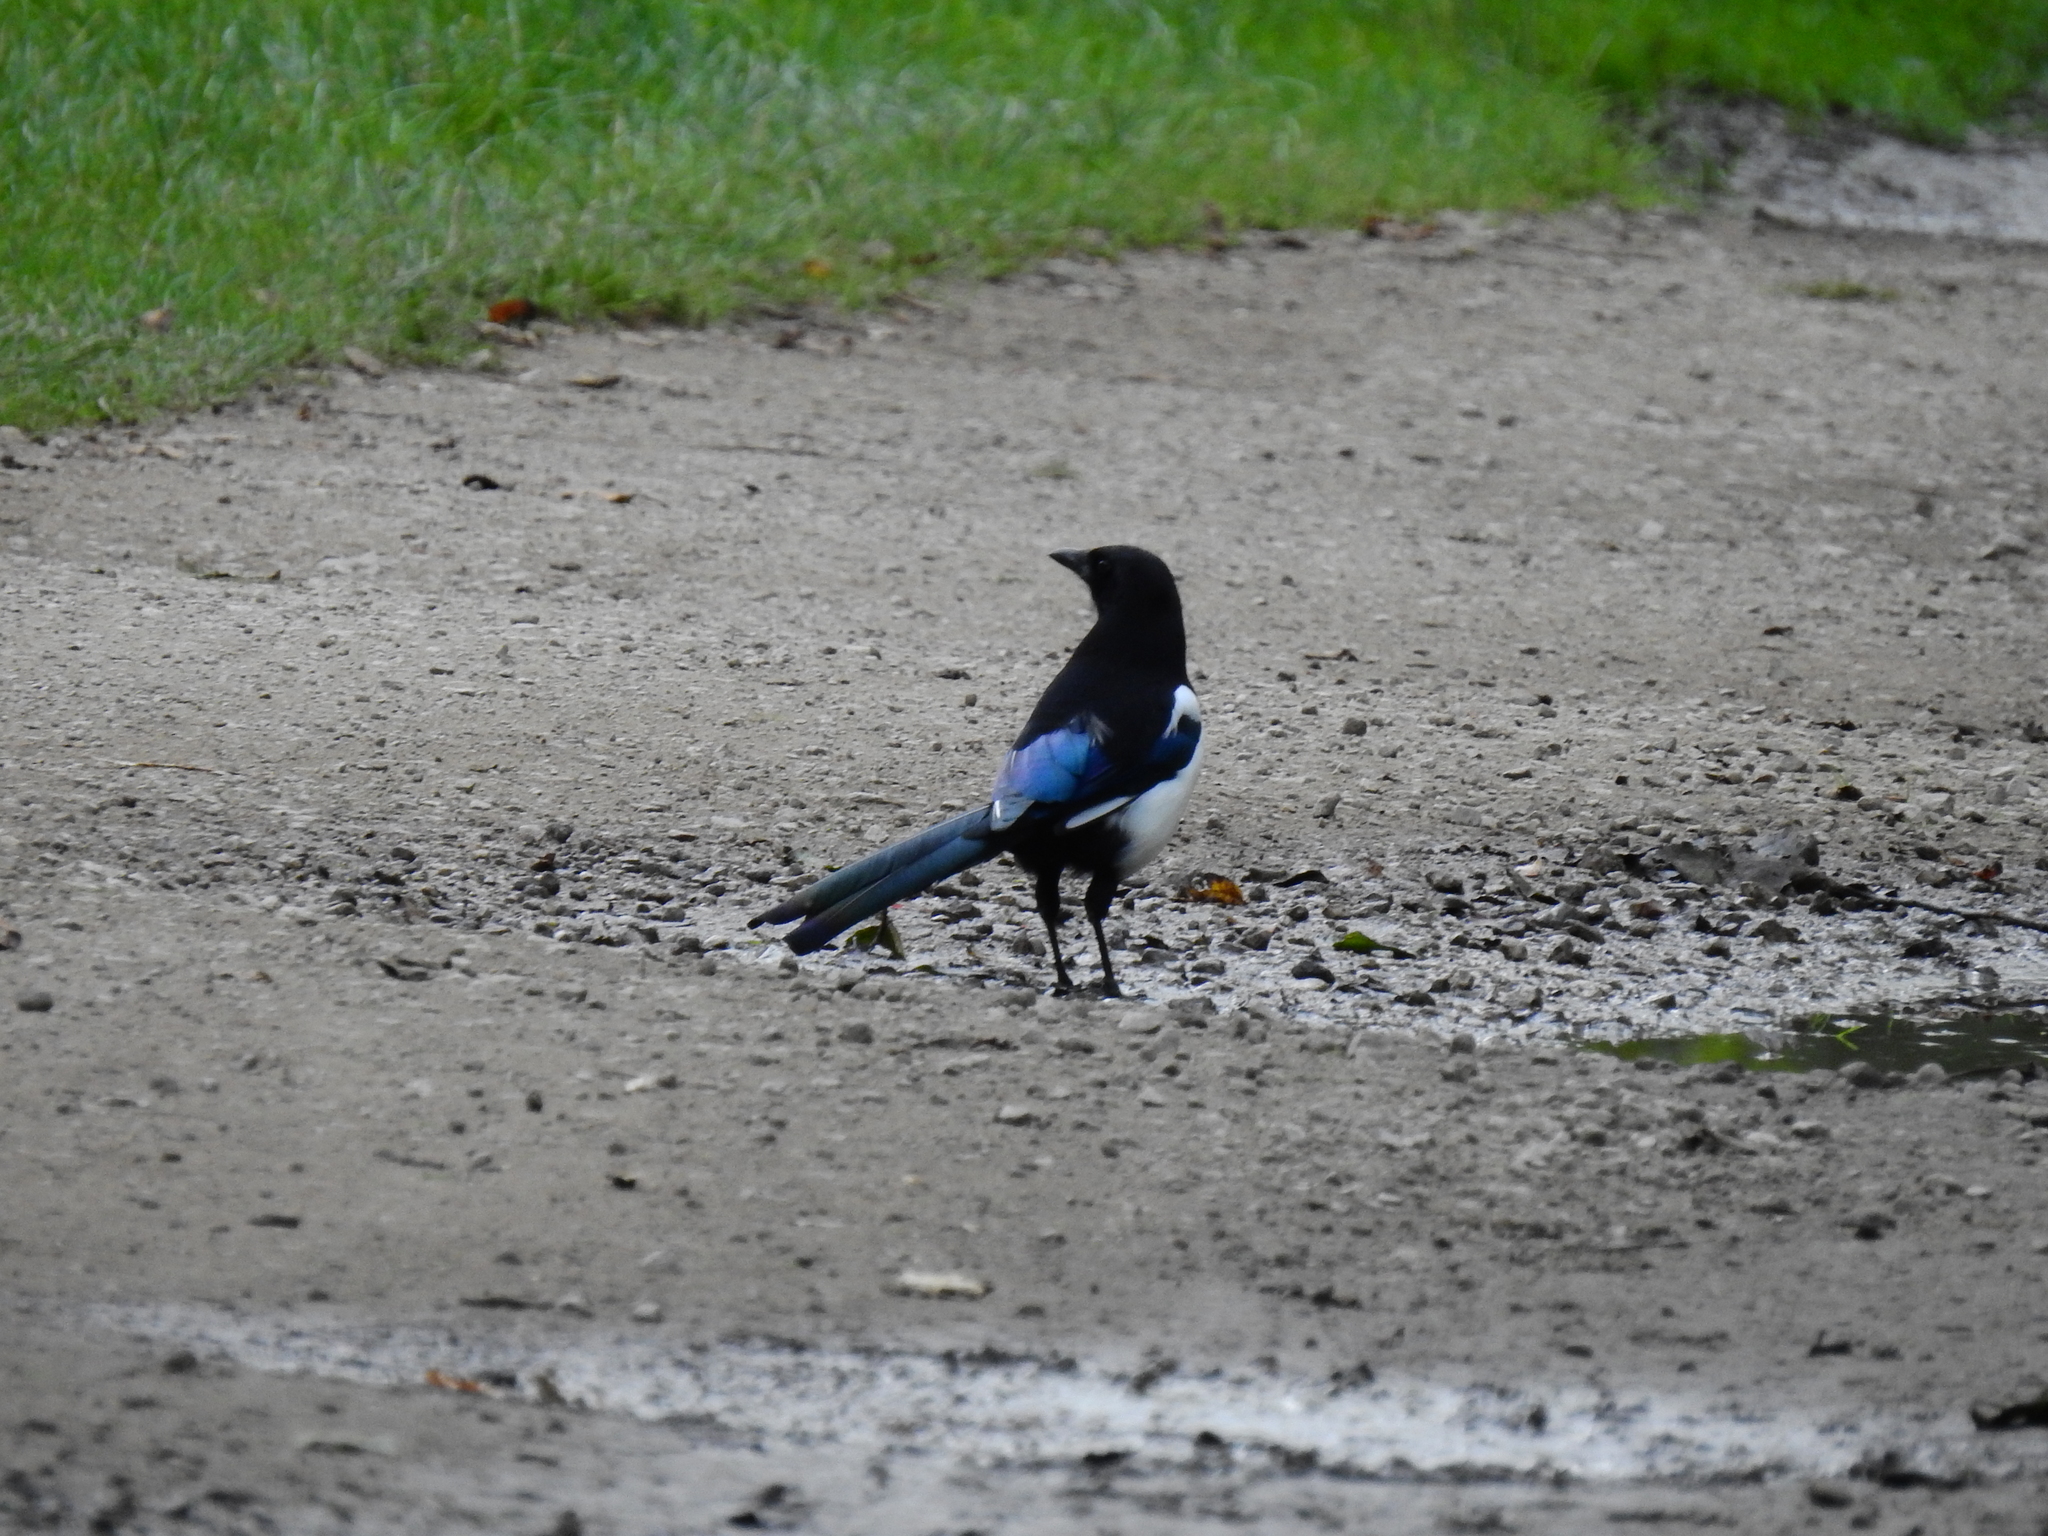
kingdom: Animalia
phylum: Chordata
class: Aves
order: Passeriformes
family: Corvidae
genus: Pica
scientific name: Pica pica
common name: Eurasian magpie
